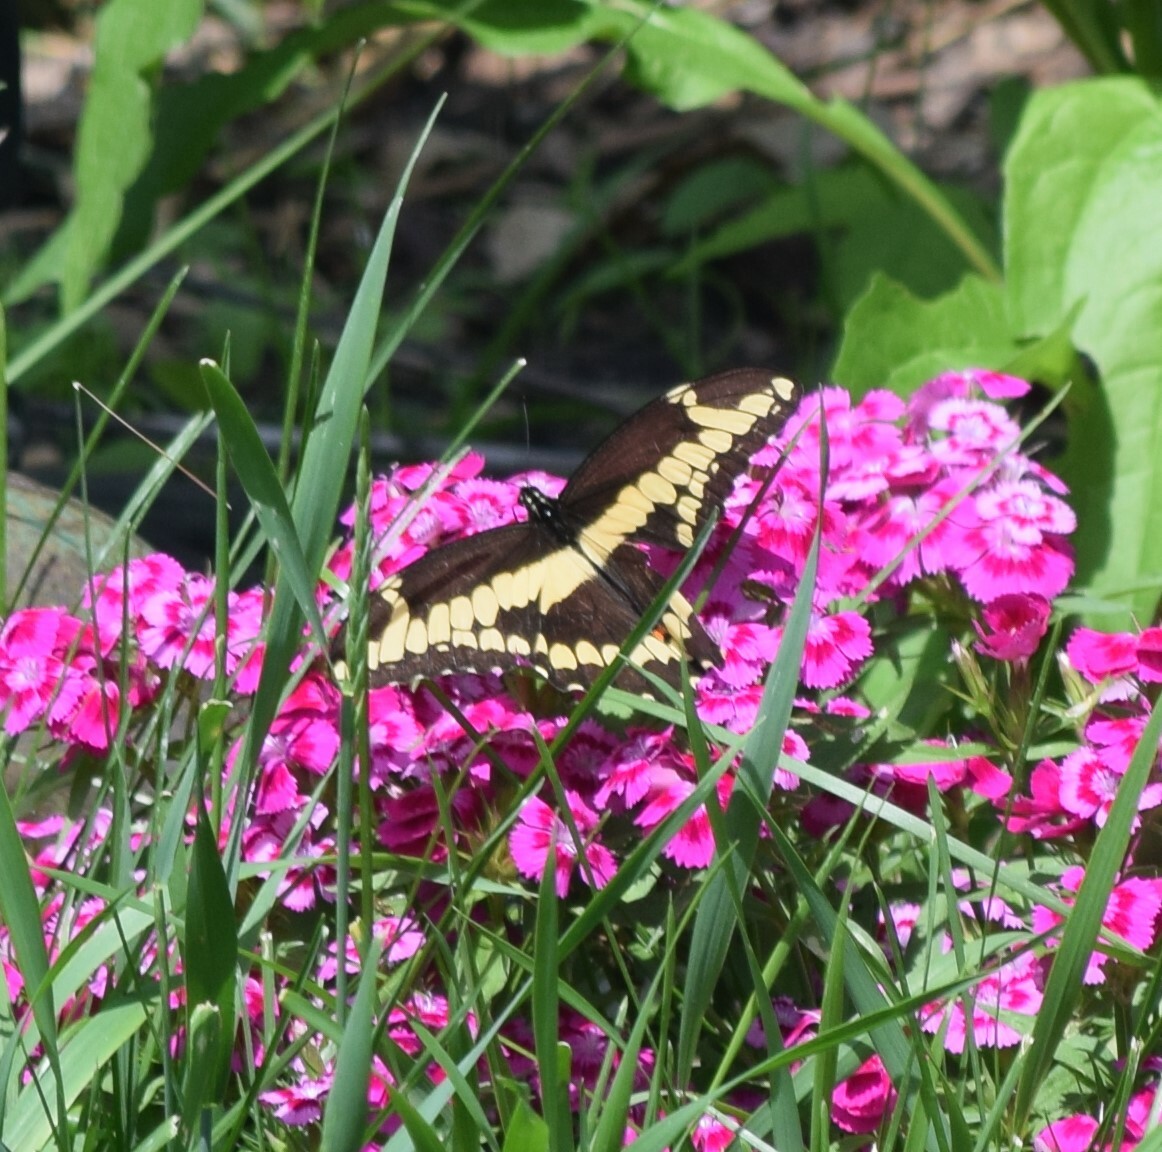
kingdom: Animalia
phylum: Arthropoda
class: Insecta
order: Lepidoptera
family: Papilionidae
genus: Papilio
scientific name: Papilio cresphontes
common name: Giant swallowtail
